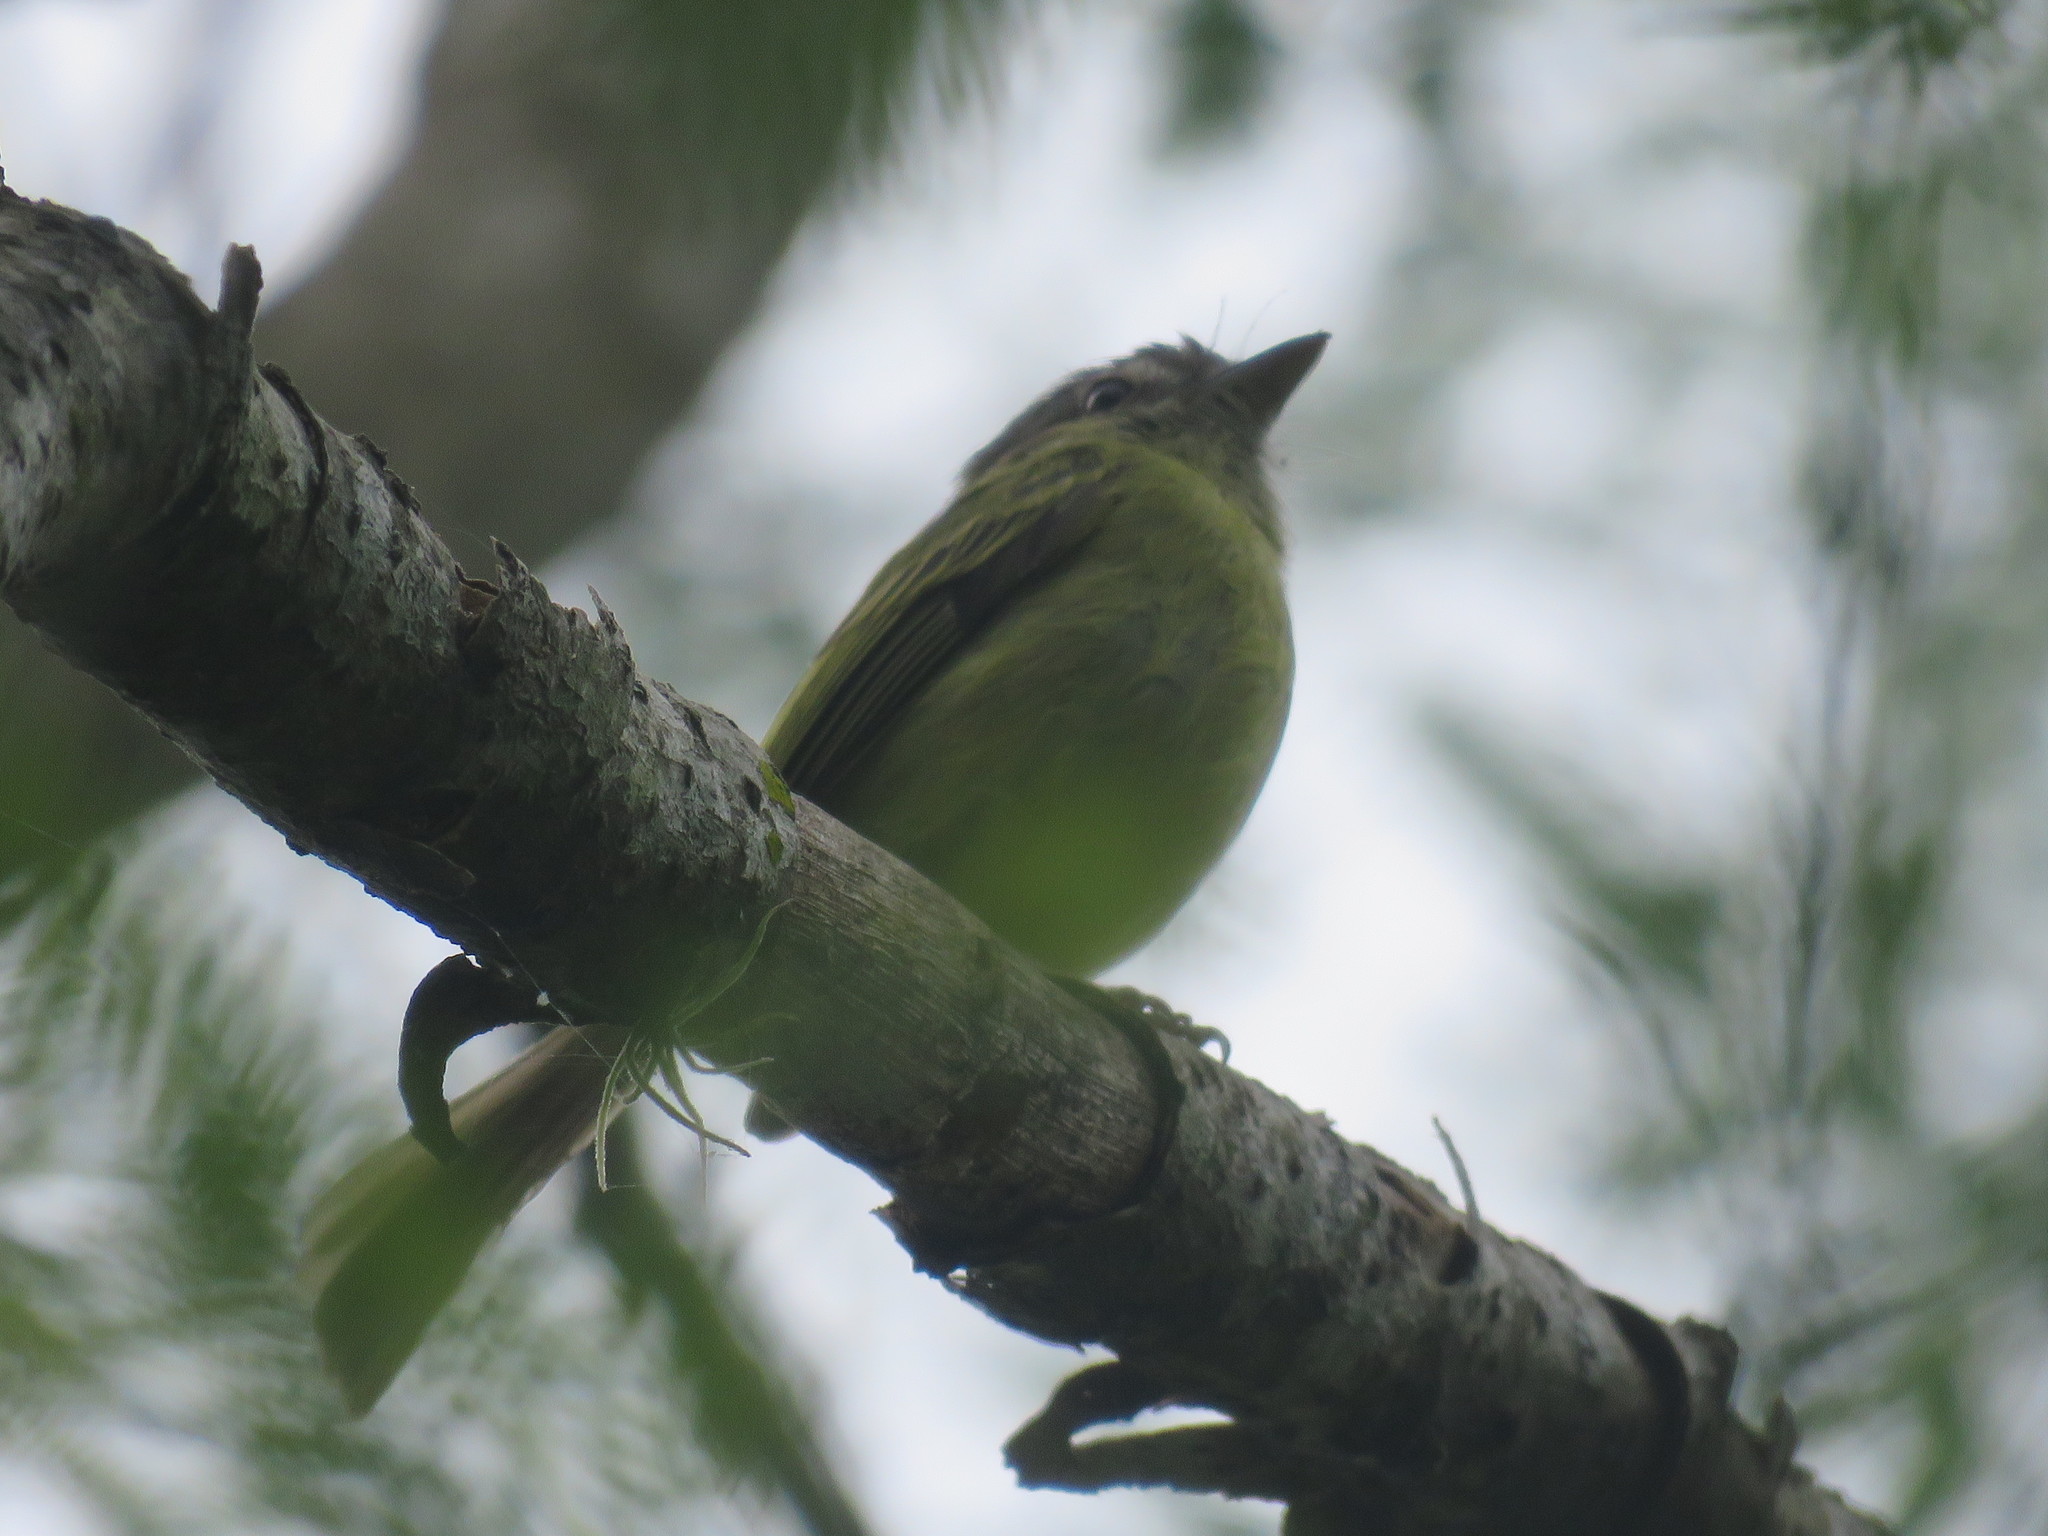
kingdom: Animalia
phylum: Chordata
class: Aves
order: Passeriformes
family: Tyrannidae
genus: Tolmomyias
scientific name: Tolmomyias sulphurescens
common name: Yellow-olive flycatcher
